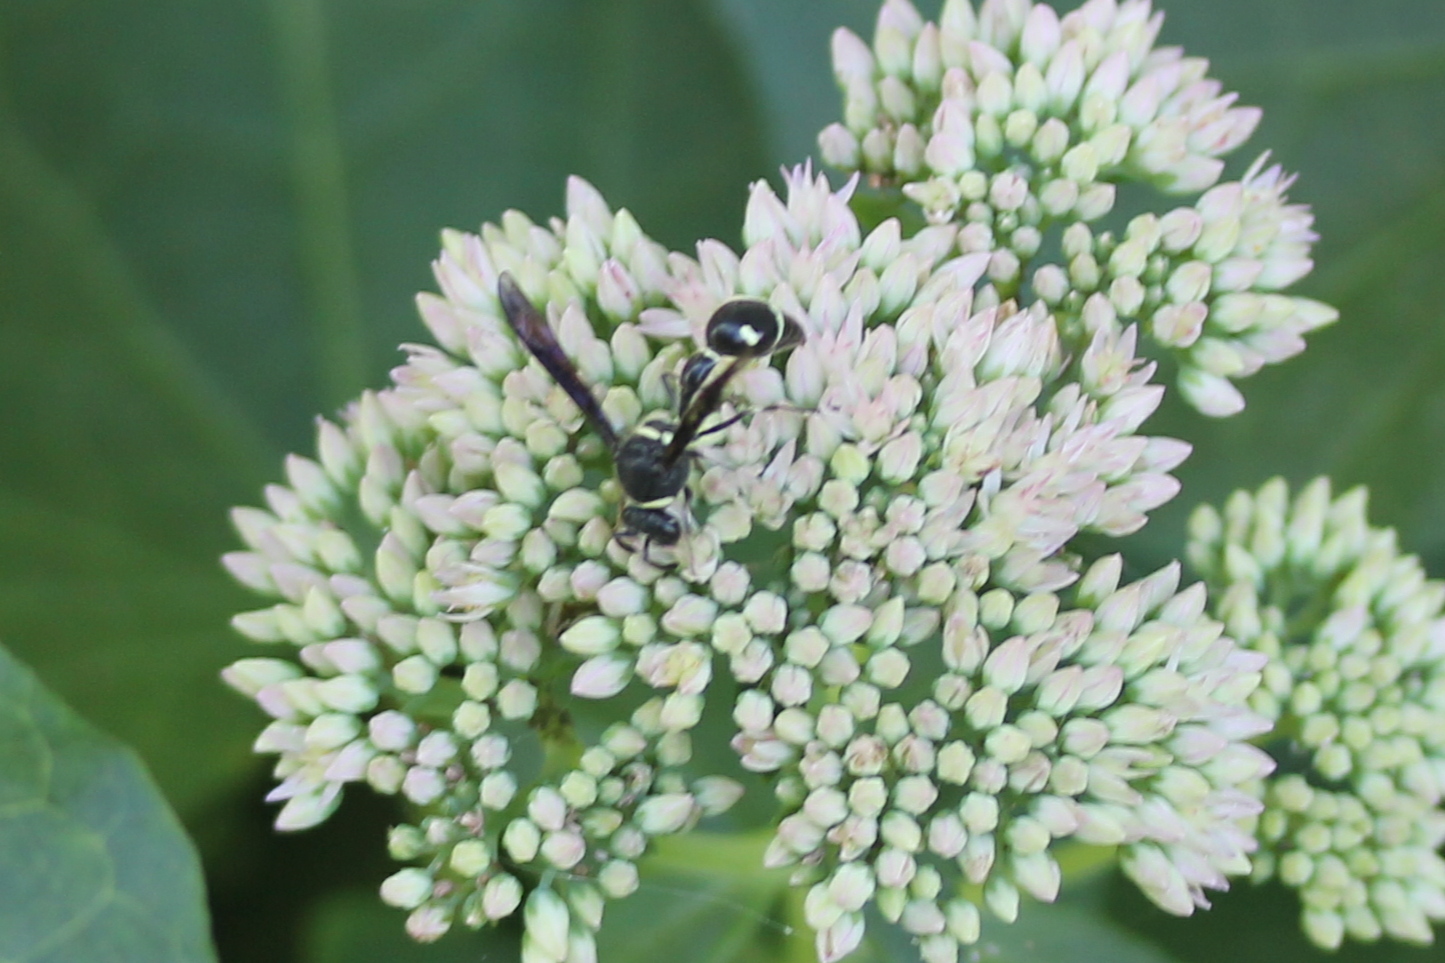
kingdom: Animalia
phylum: Arthropoda
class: Insecta
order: Hymenoptera
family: Vespidae
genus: Eumenes
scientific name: Eumenes fraternus
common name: Fraternal potter wasp
